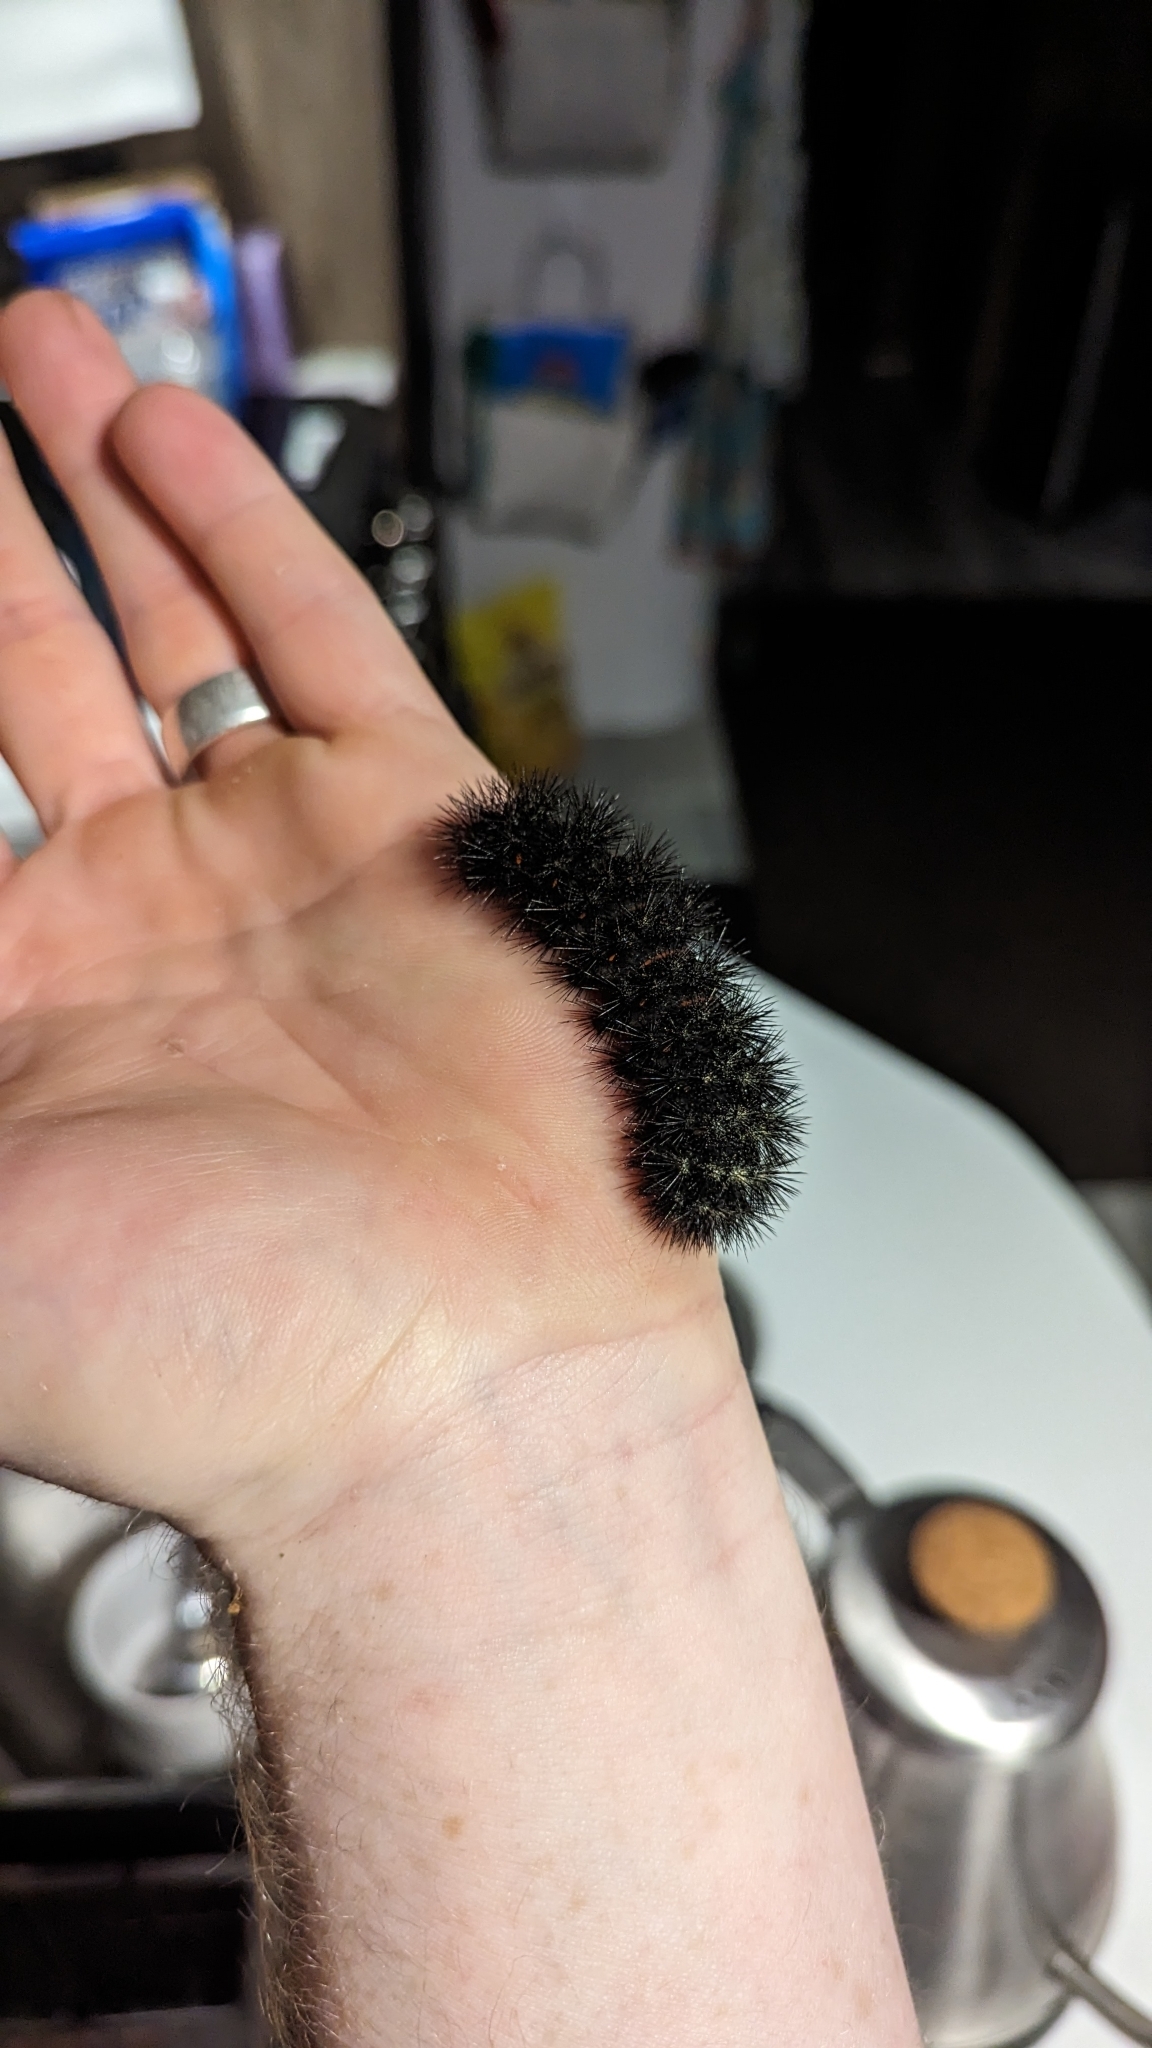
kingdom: Animalia
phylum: Arthropoda
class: Insecta
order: Lepidoptera
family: Erebidae
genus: Hypercompe
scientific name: Hypercompe scribonia
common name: Giant leopard moth
